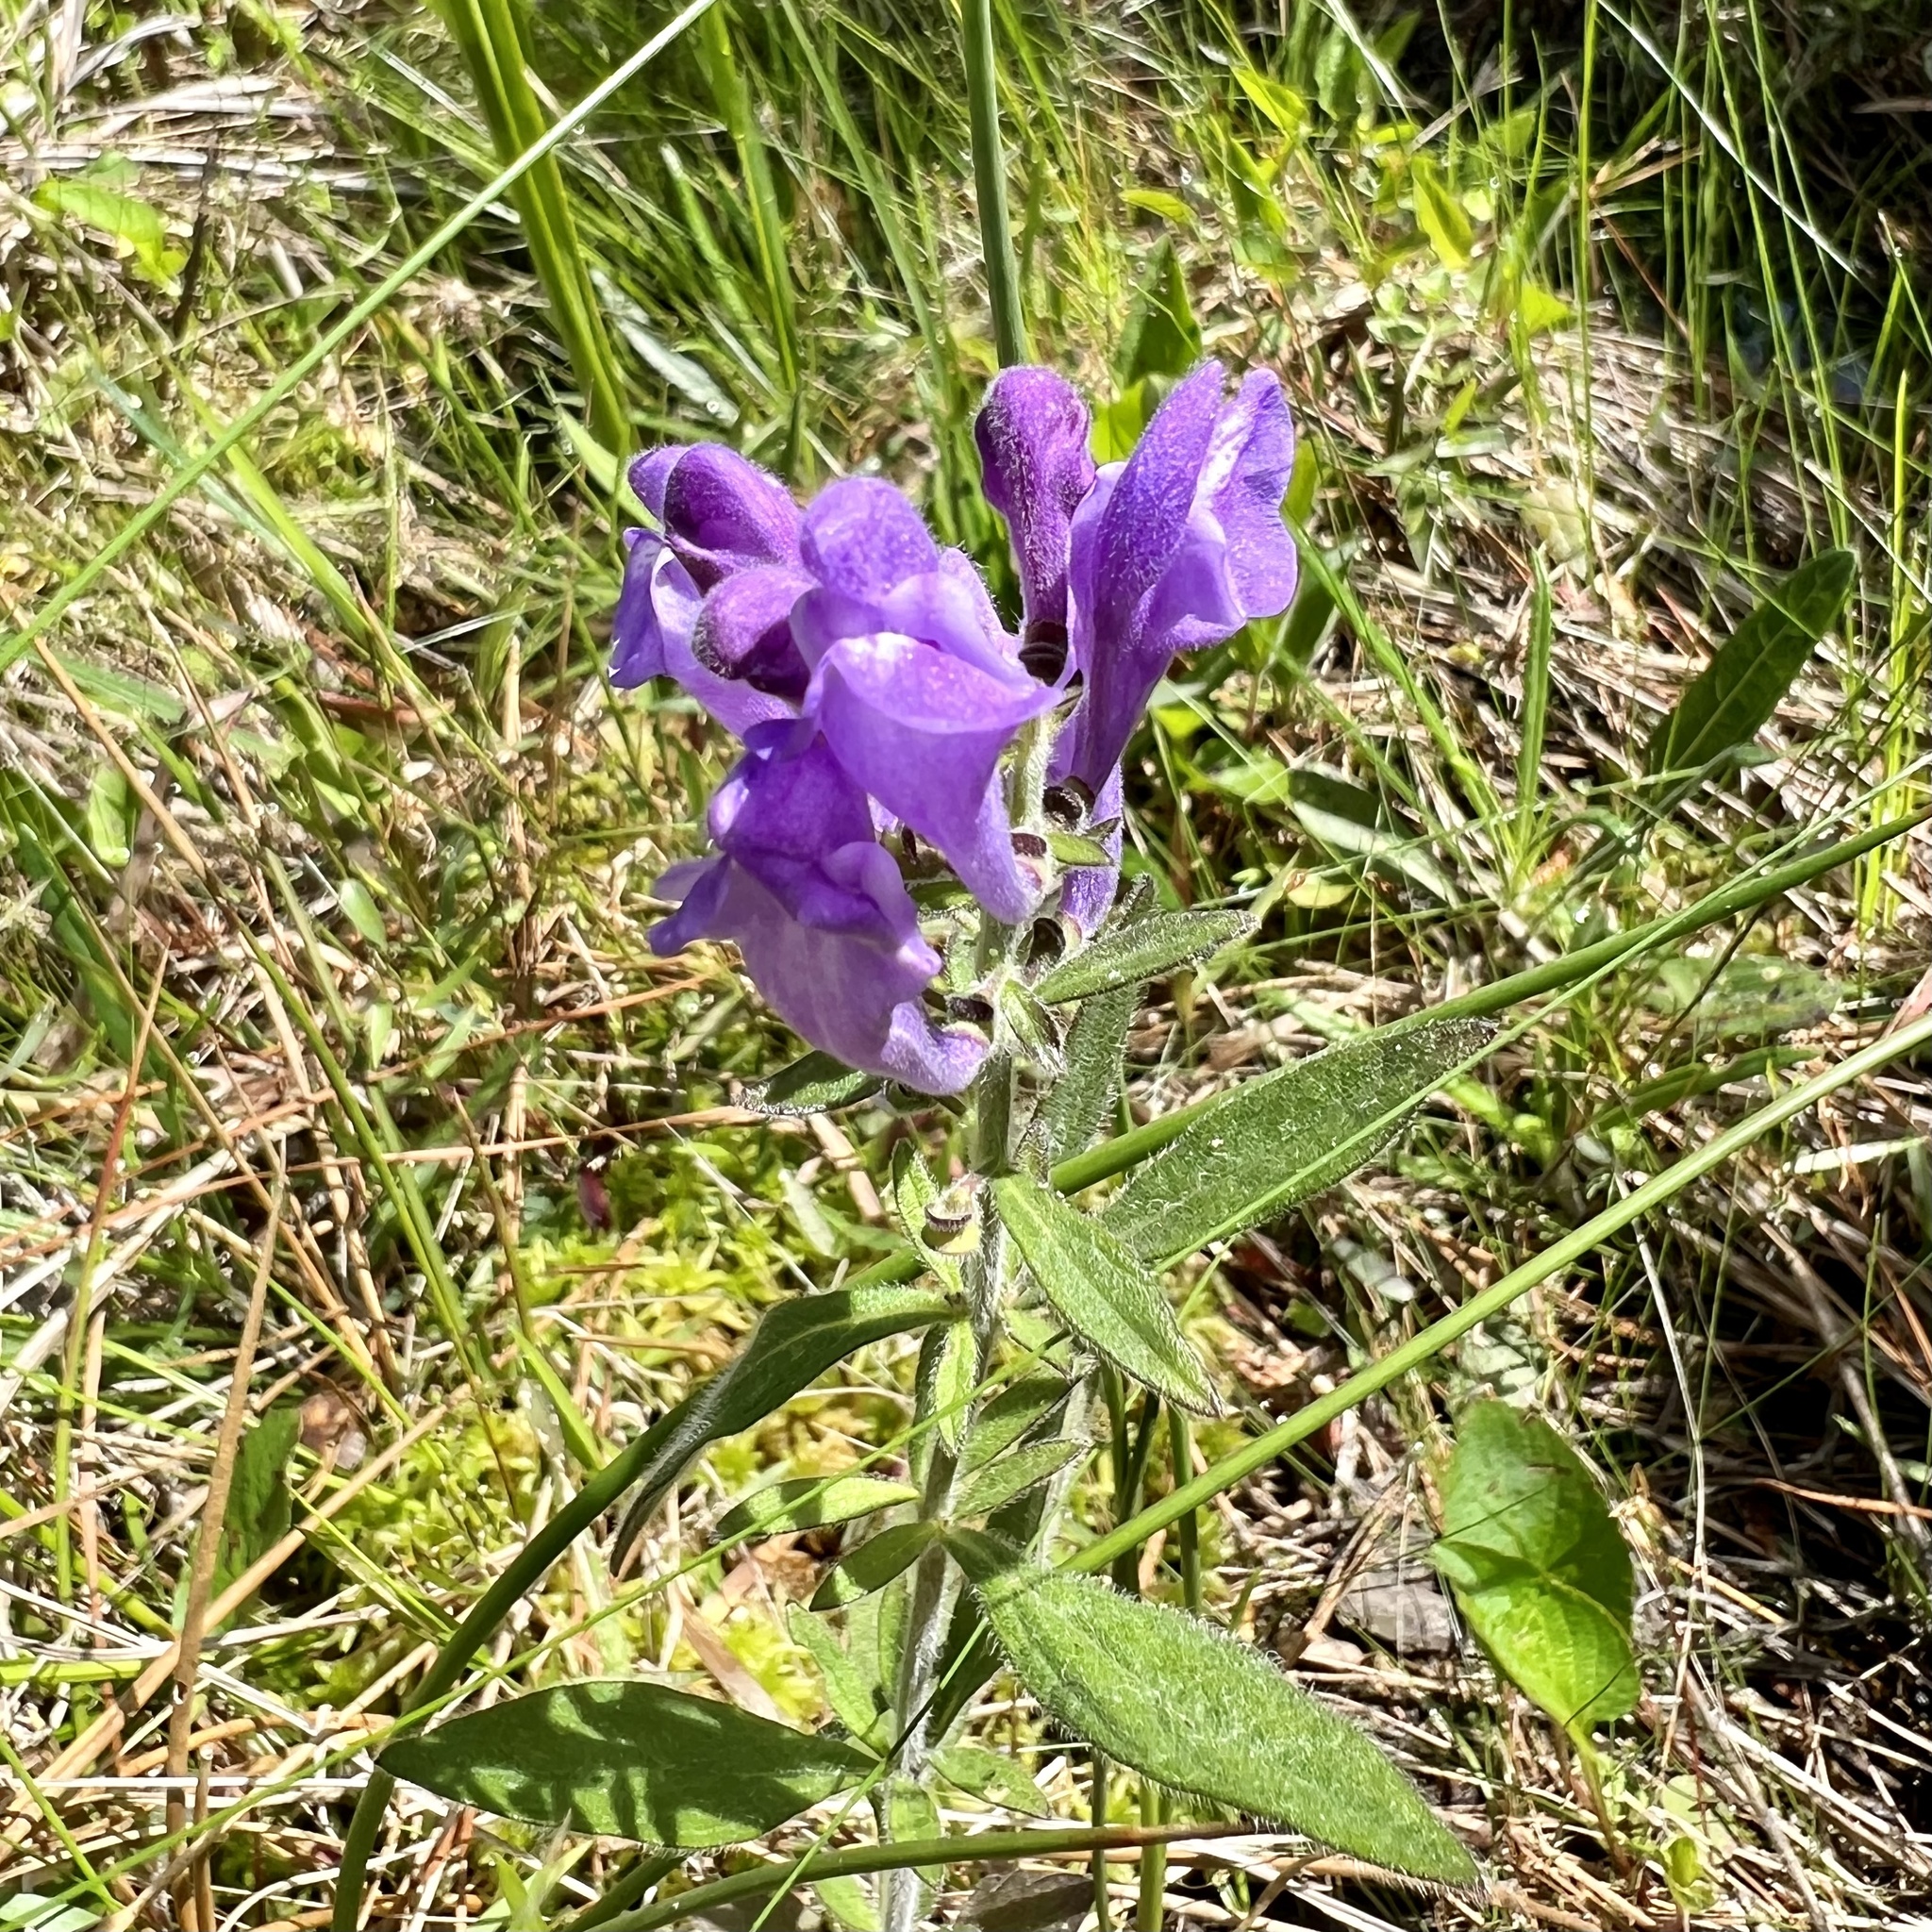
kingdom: Plantae
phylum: Tracheophyta
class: Magnoliopsida
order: Lamiales
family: Lamiaceae
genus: Scutellaria
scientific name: Scutellaria integrifolia
